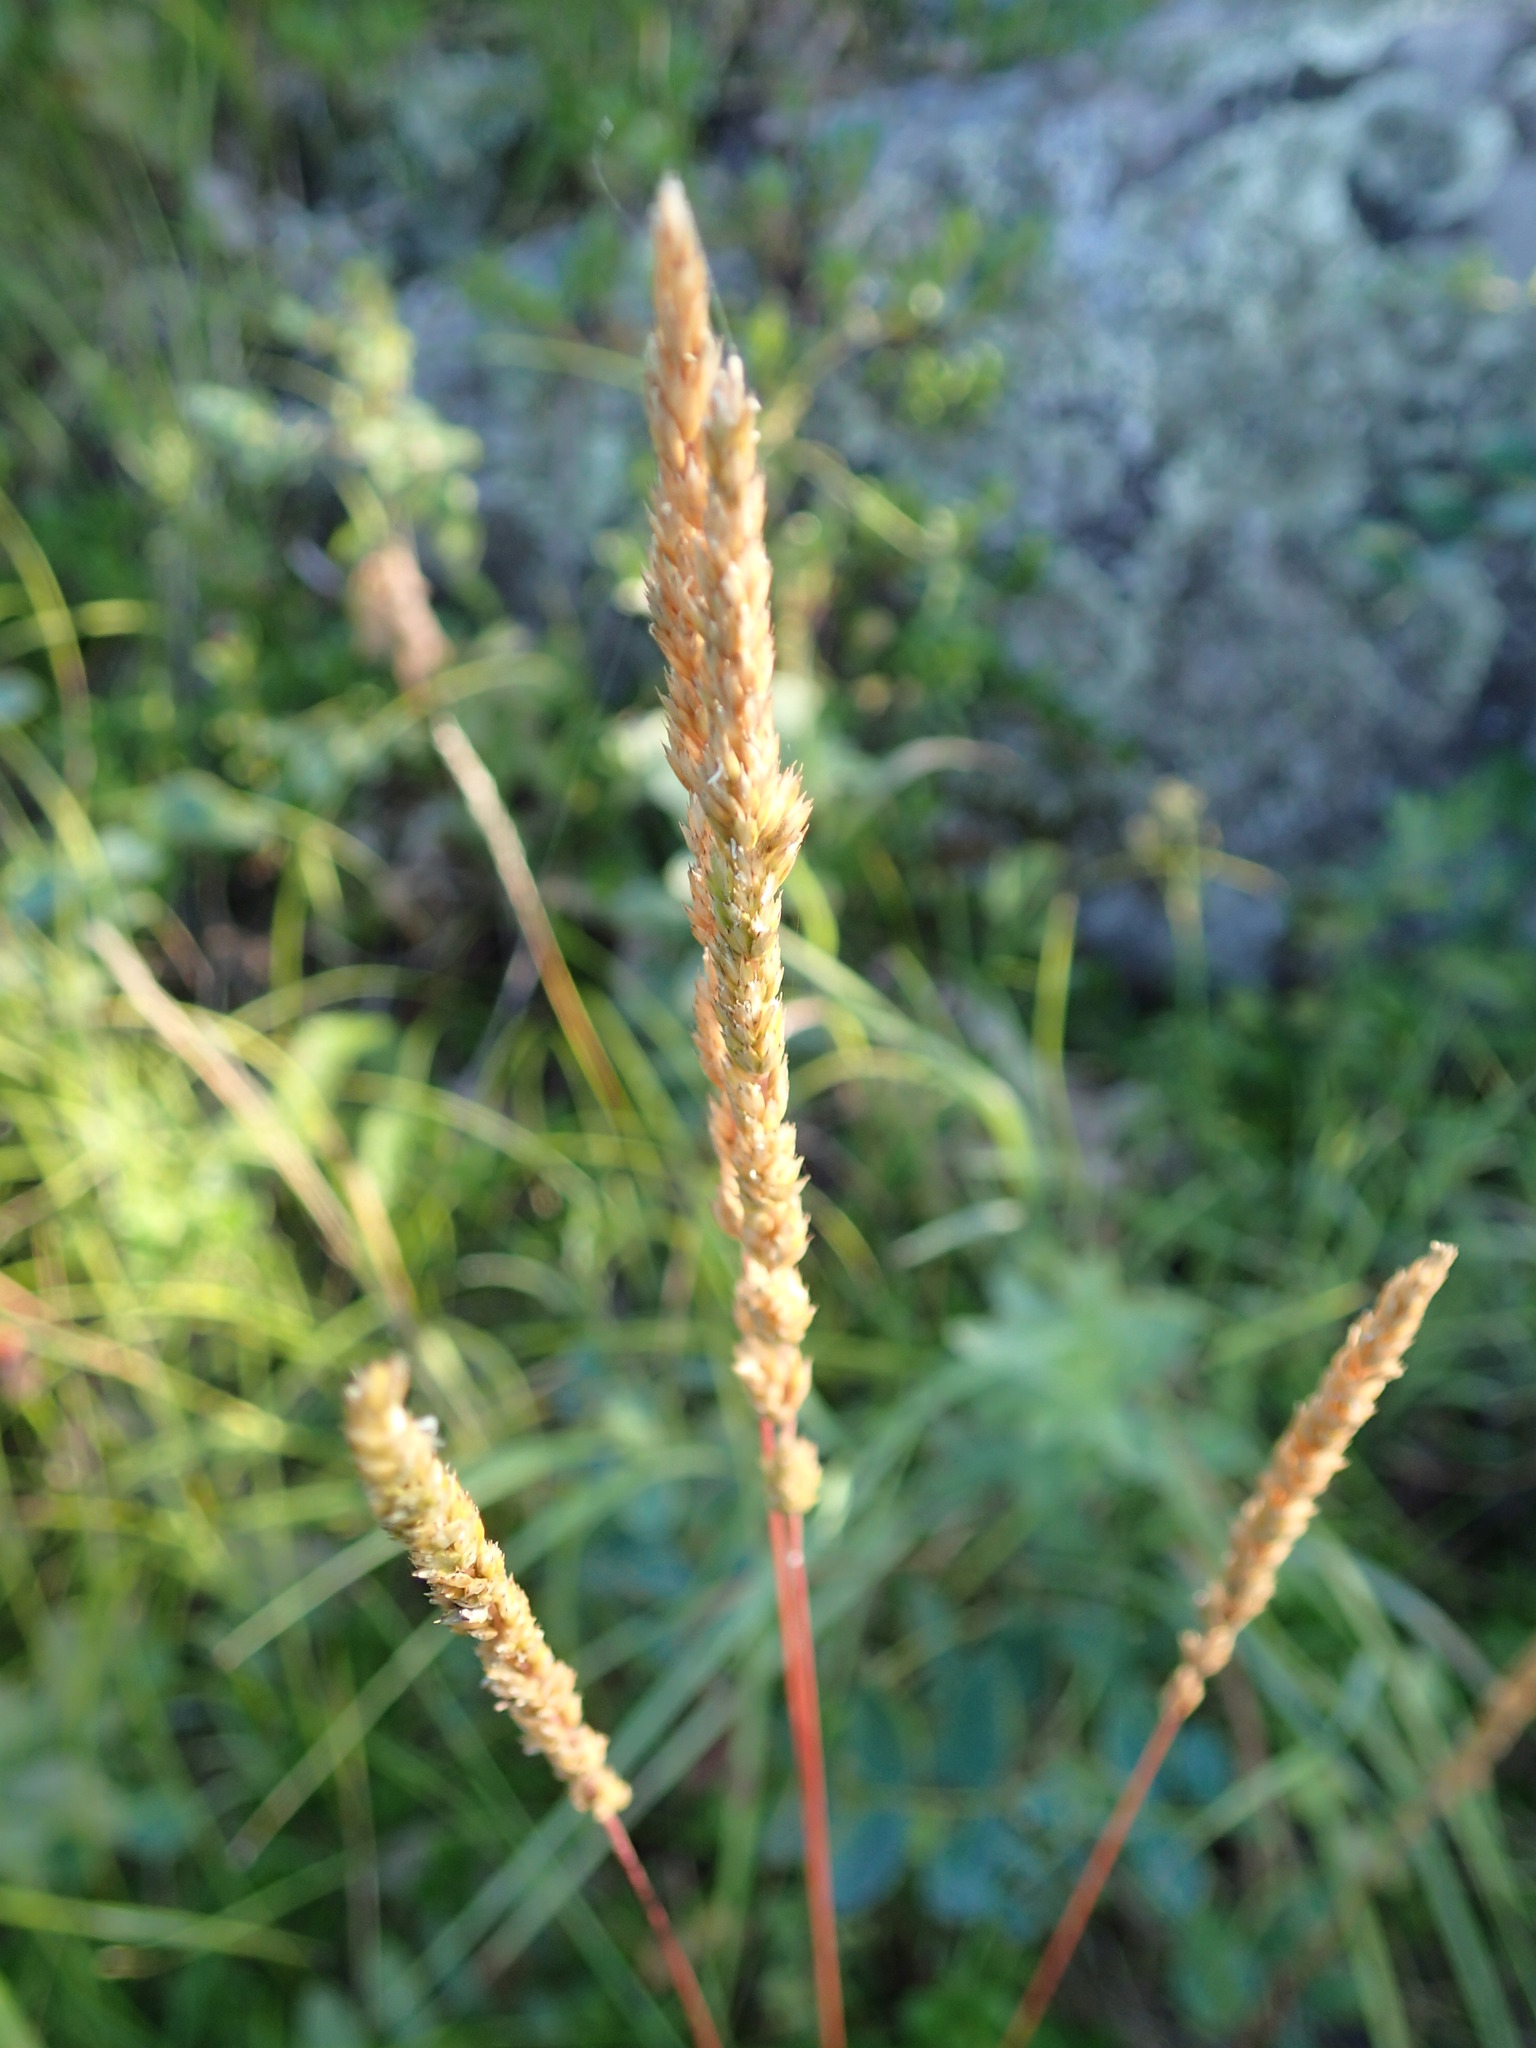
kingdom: Plantae
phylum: Tracheophyta
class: Liliopsida
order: Poales
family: Poaceae
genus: Koeleria
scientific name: Koeleria macrantha
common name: Crested hair-grass
